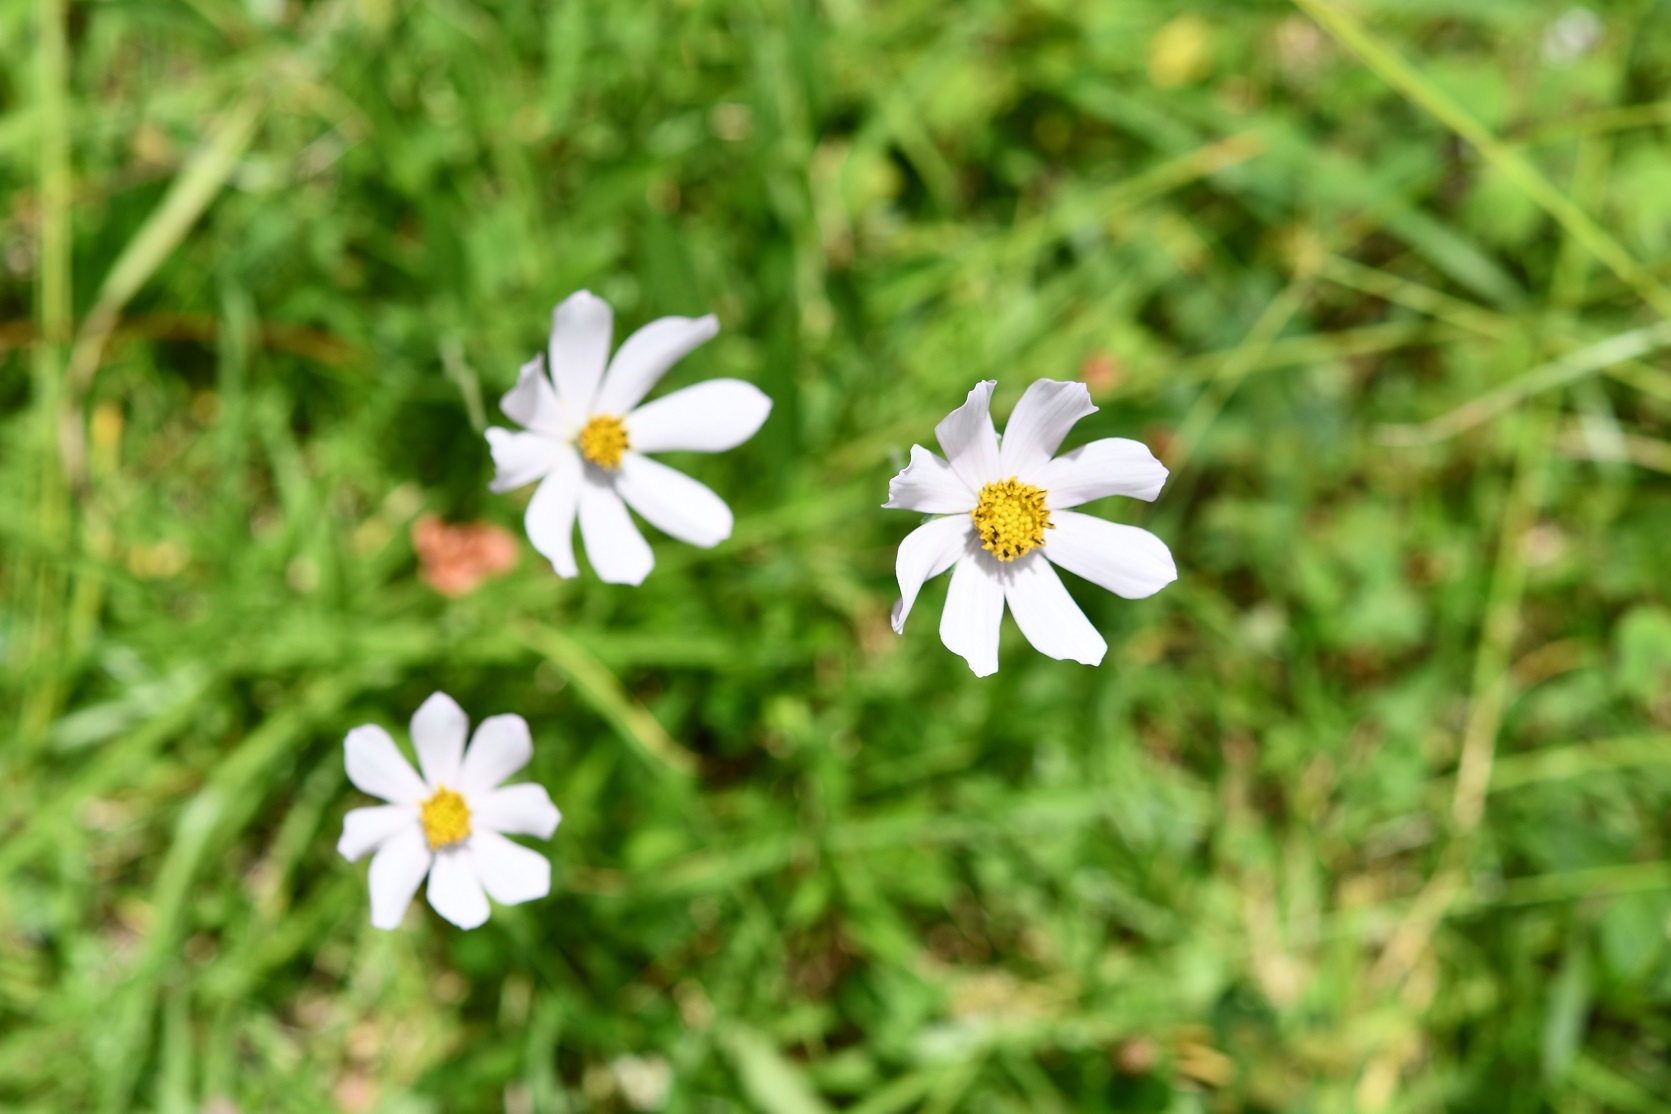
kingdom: Plantae
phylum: Tracheophyta
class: Magnoliopsida
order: Asterales
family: Asteraceae
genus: Cosmos
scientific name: Cosmos diversifolius
